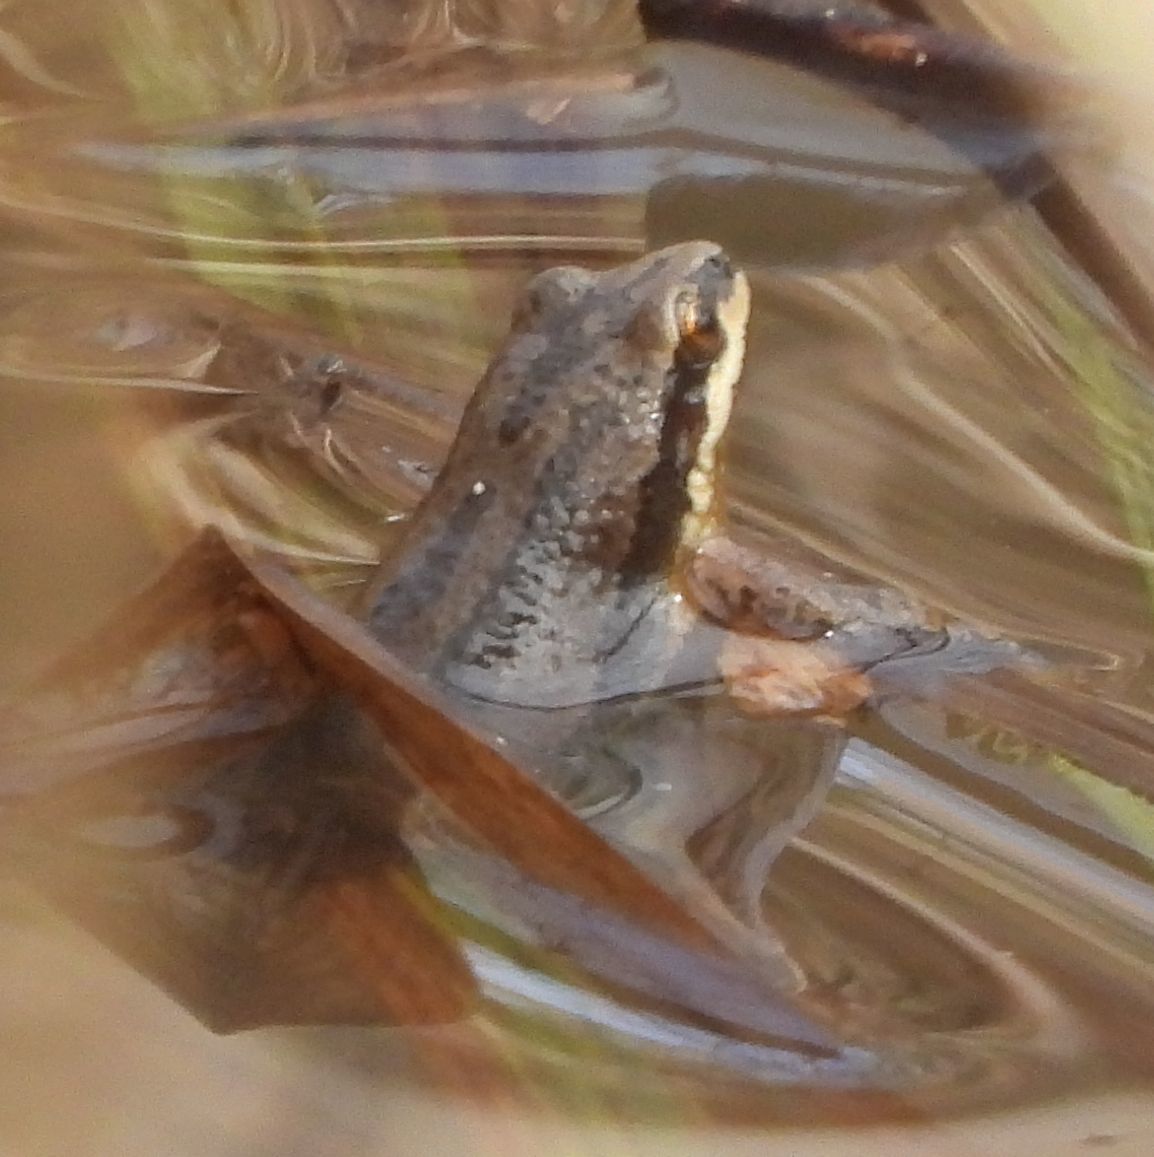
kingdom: Animalia
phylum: Chordata
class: Amphibia
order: Anura
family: Hylidae
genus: Pseudacris
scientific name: Pseudacris maculata
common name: Boreal chorus frog
